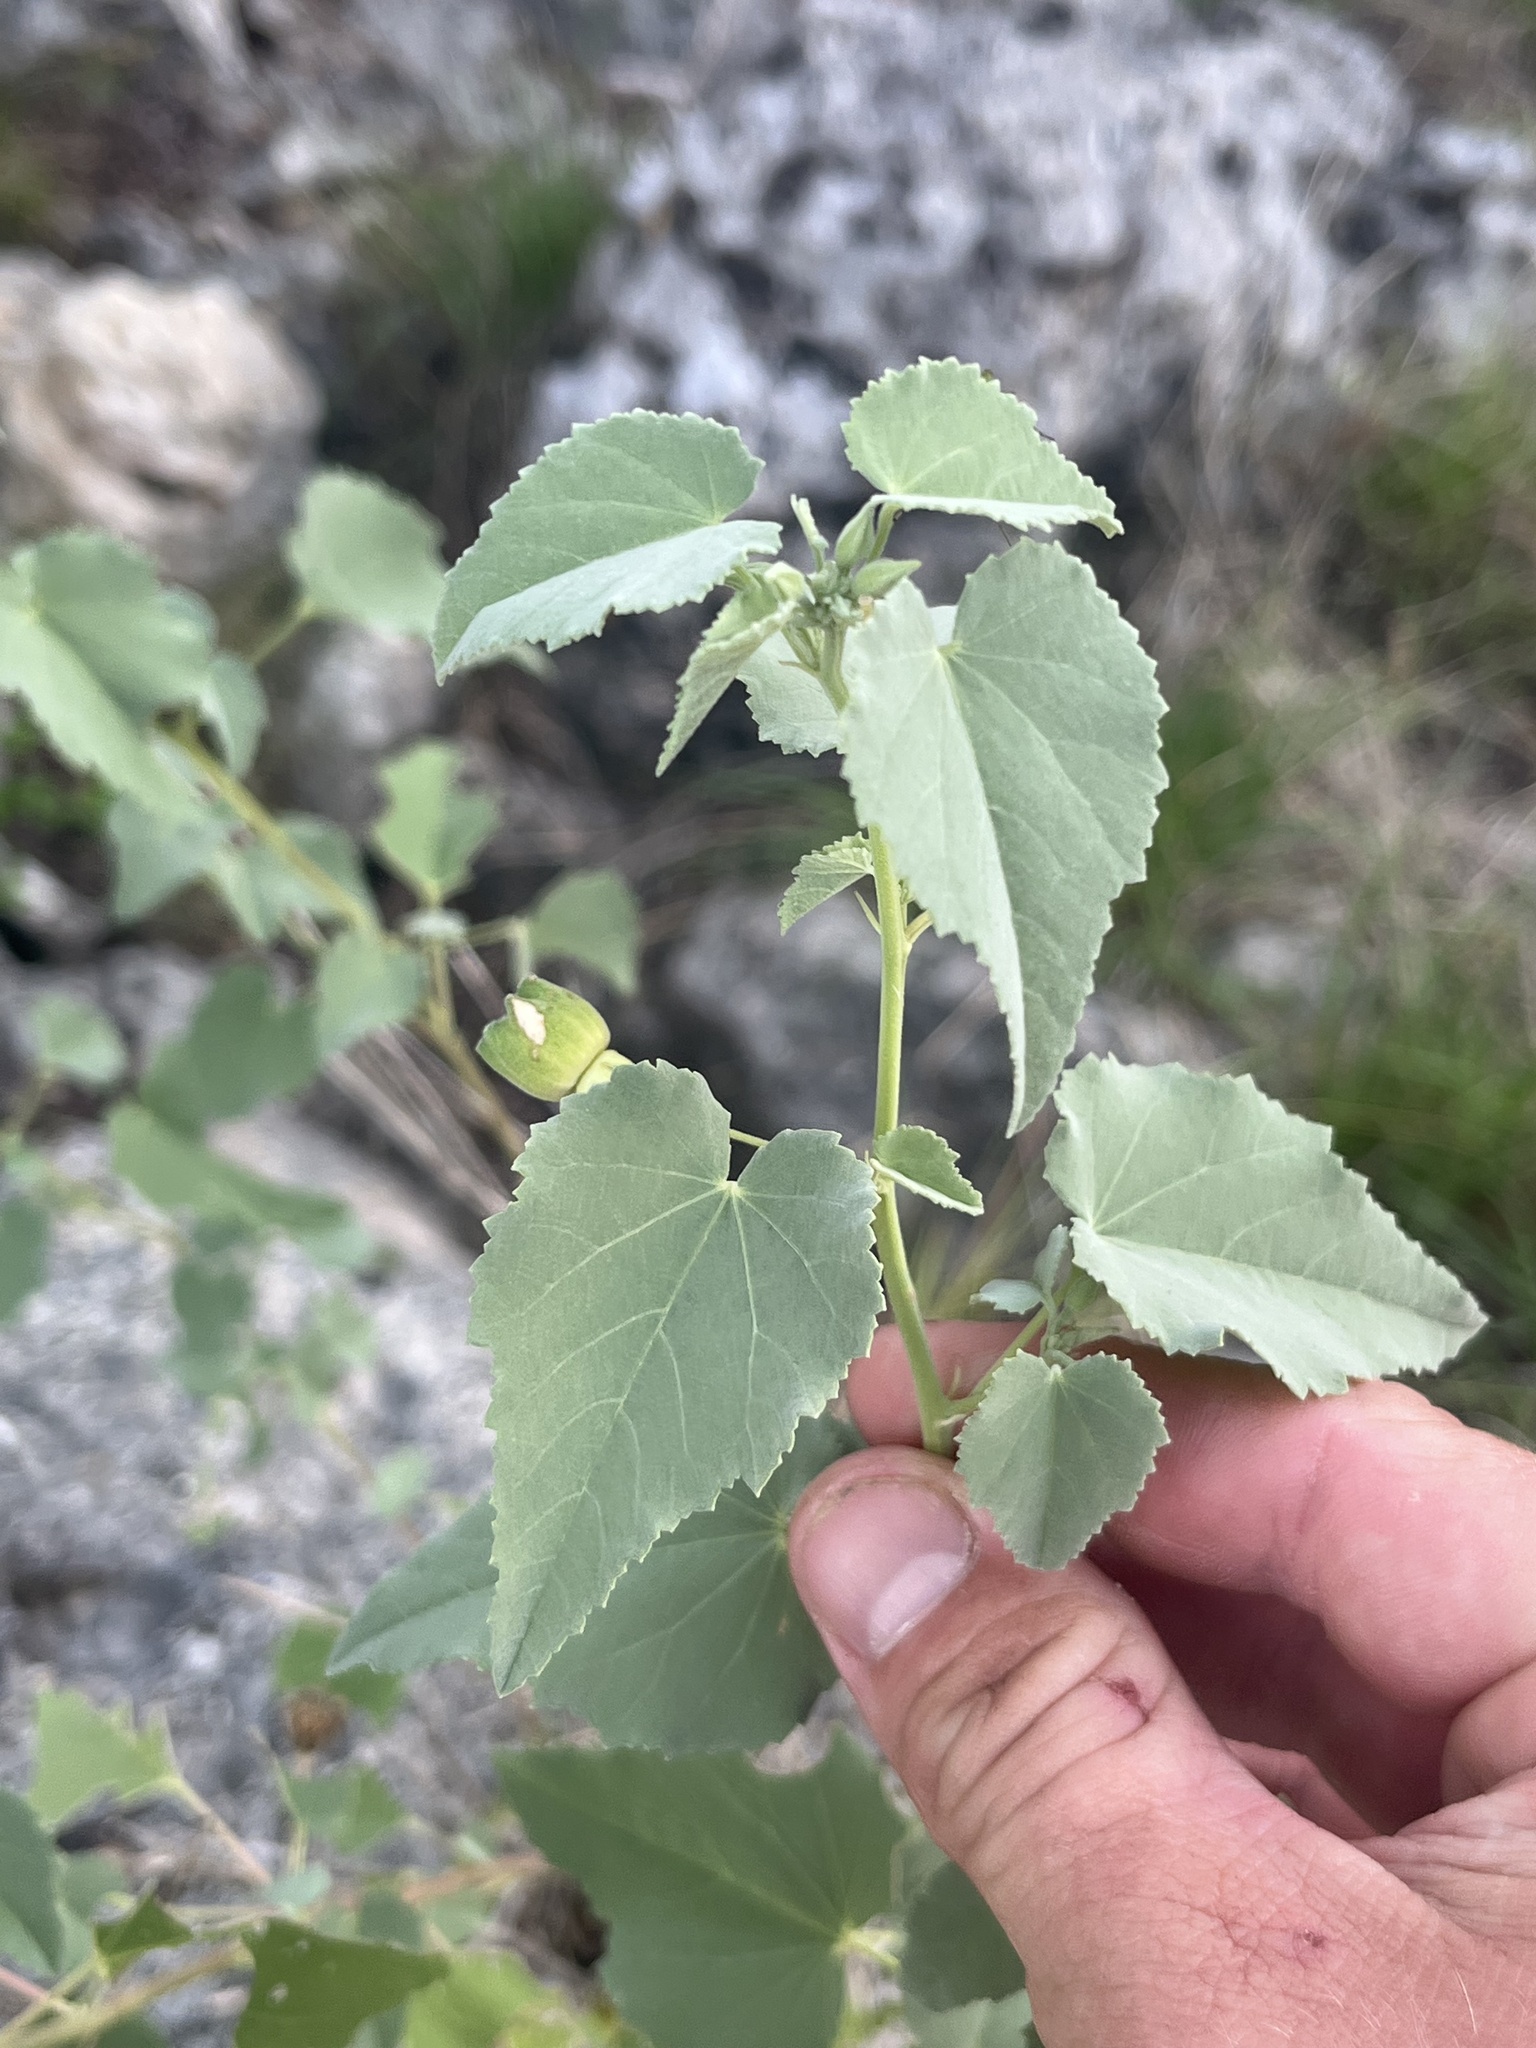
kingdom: Plantae
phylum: Tracheophyta
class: Magnoliopsida
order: Malvales
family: Malvaceae
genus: Abutilon
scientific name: Abutilon fruticosum
